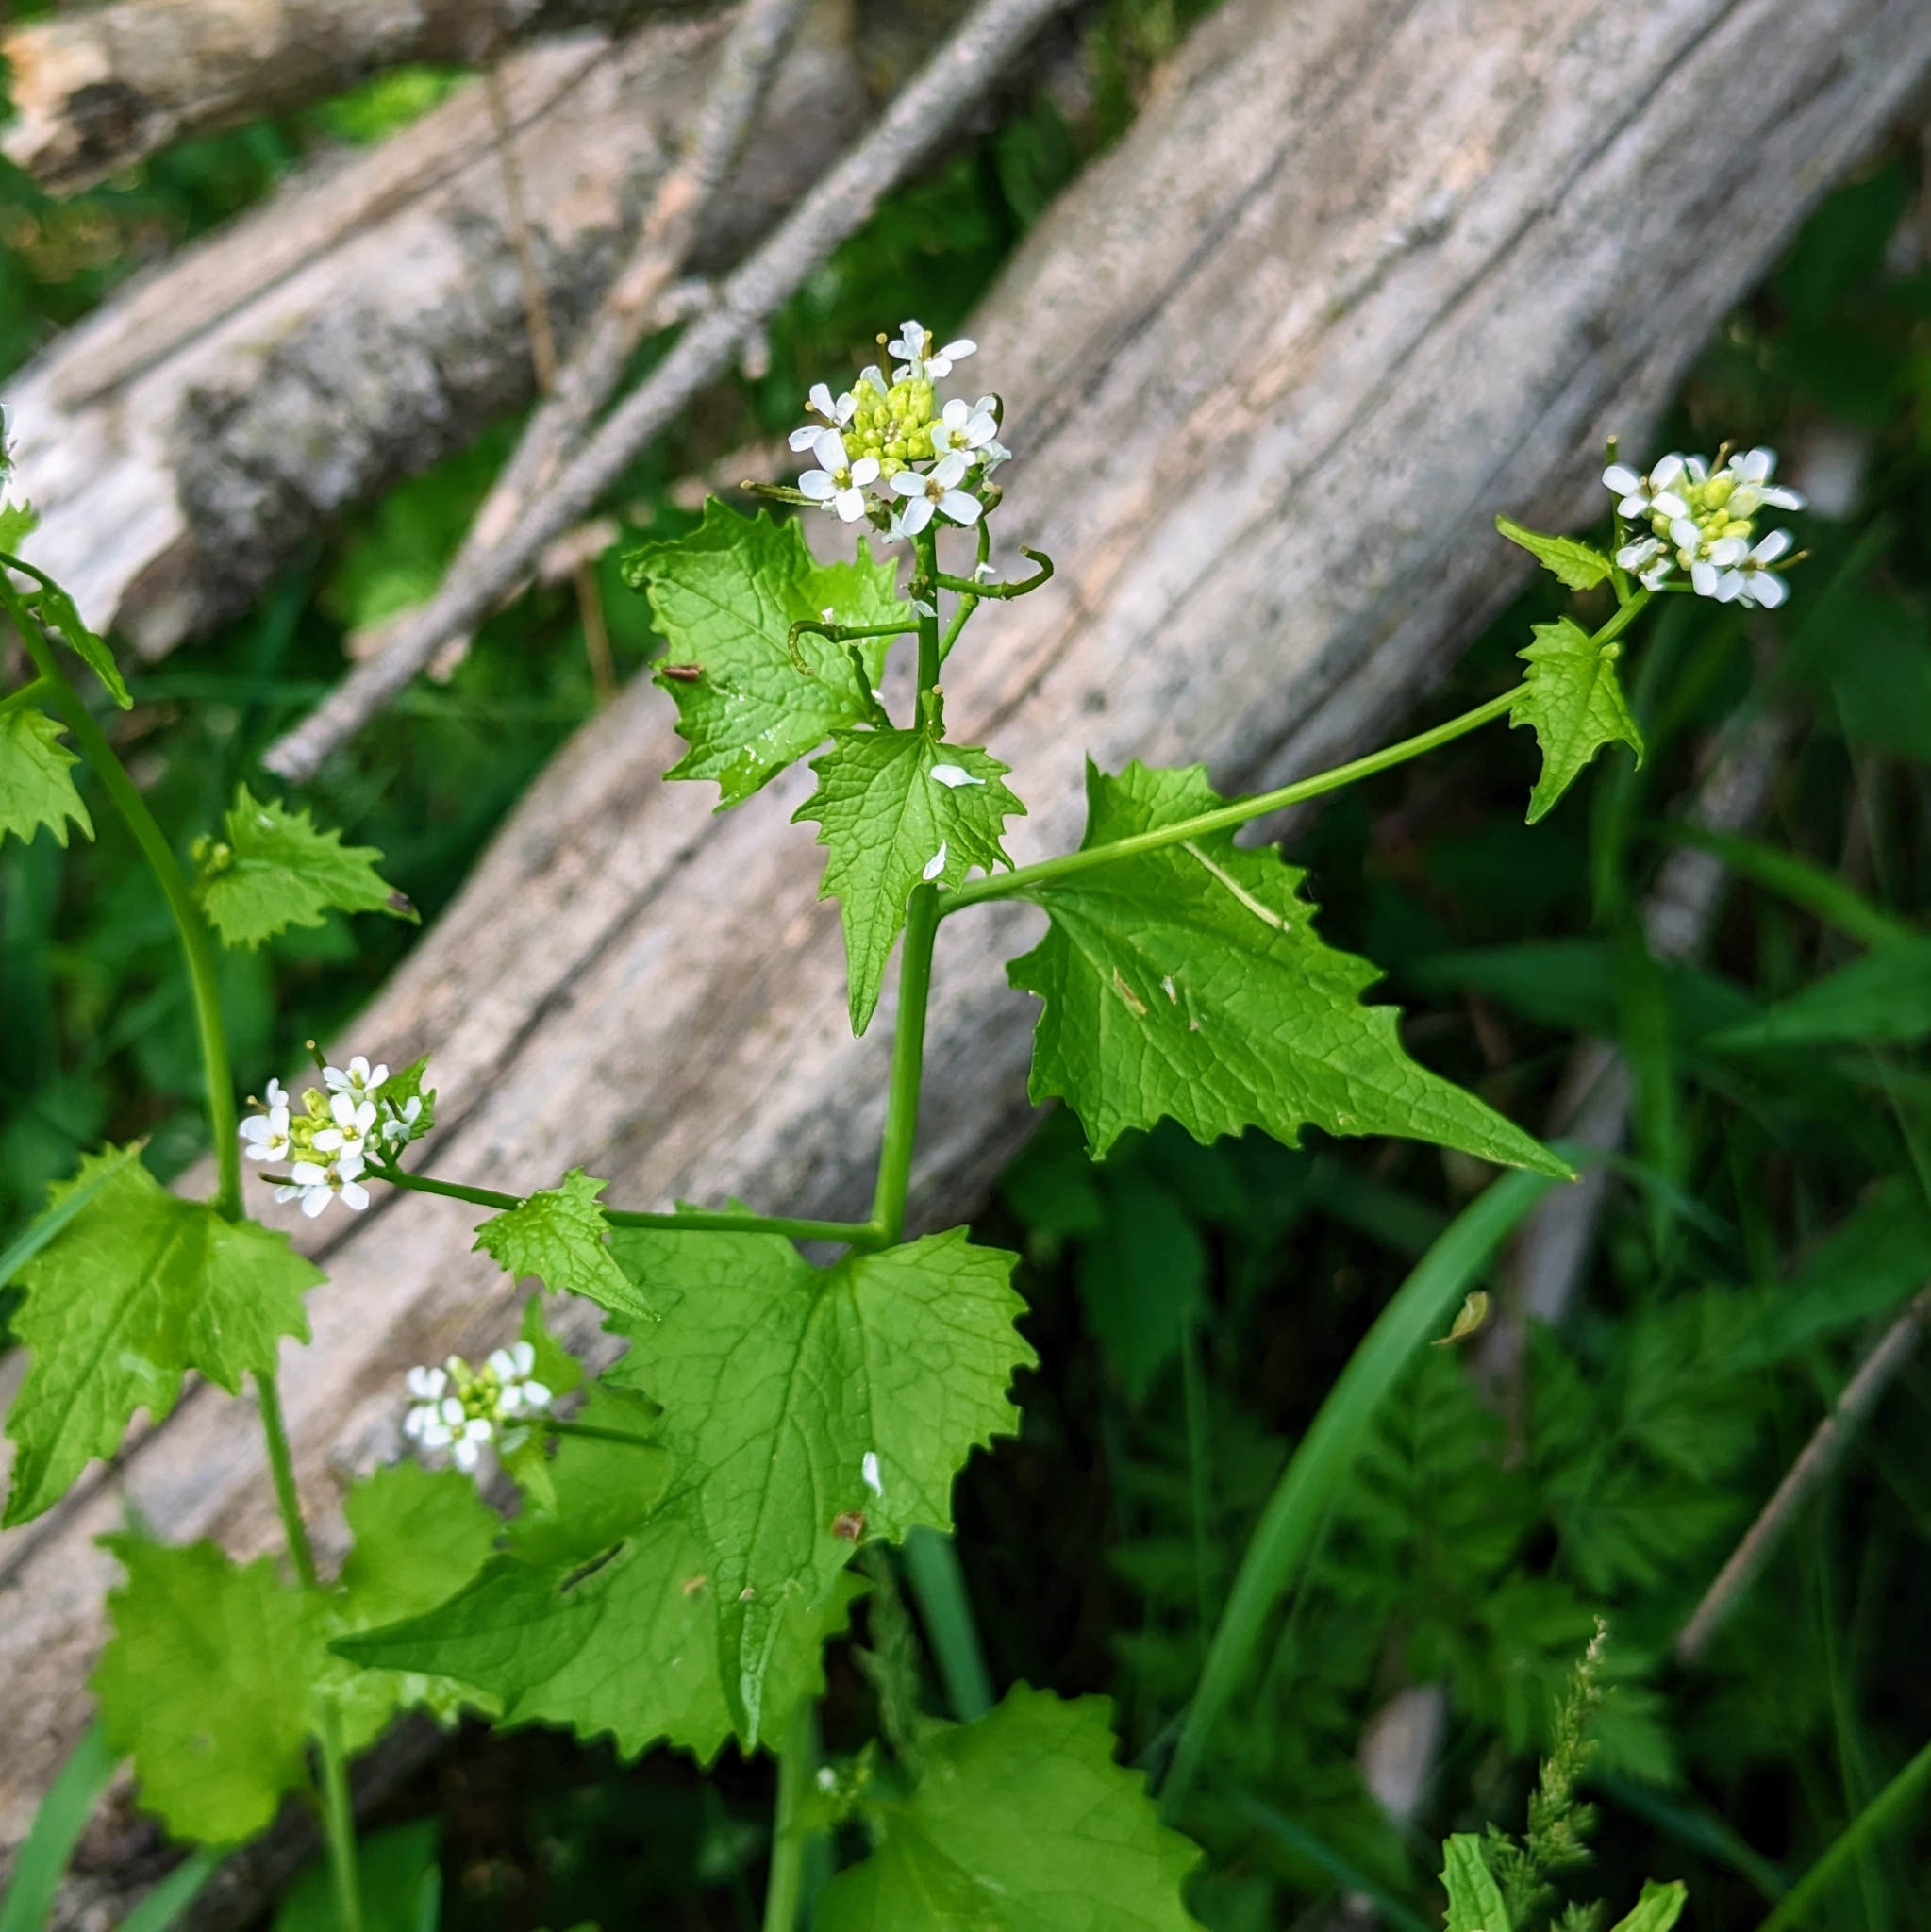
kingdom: Plantae
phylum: Tracheophyta
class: Magnoliopsida
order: Brassicales
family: Brassicaceae
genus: Alliaria
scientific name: Alliaria petiolata
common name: Garlic mustard
